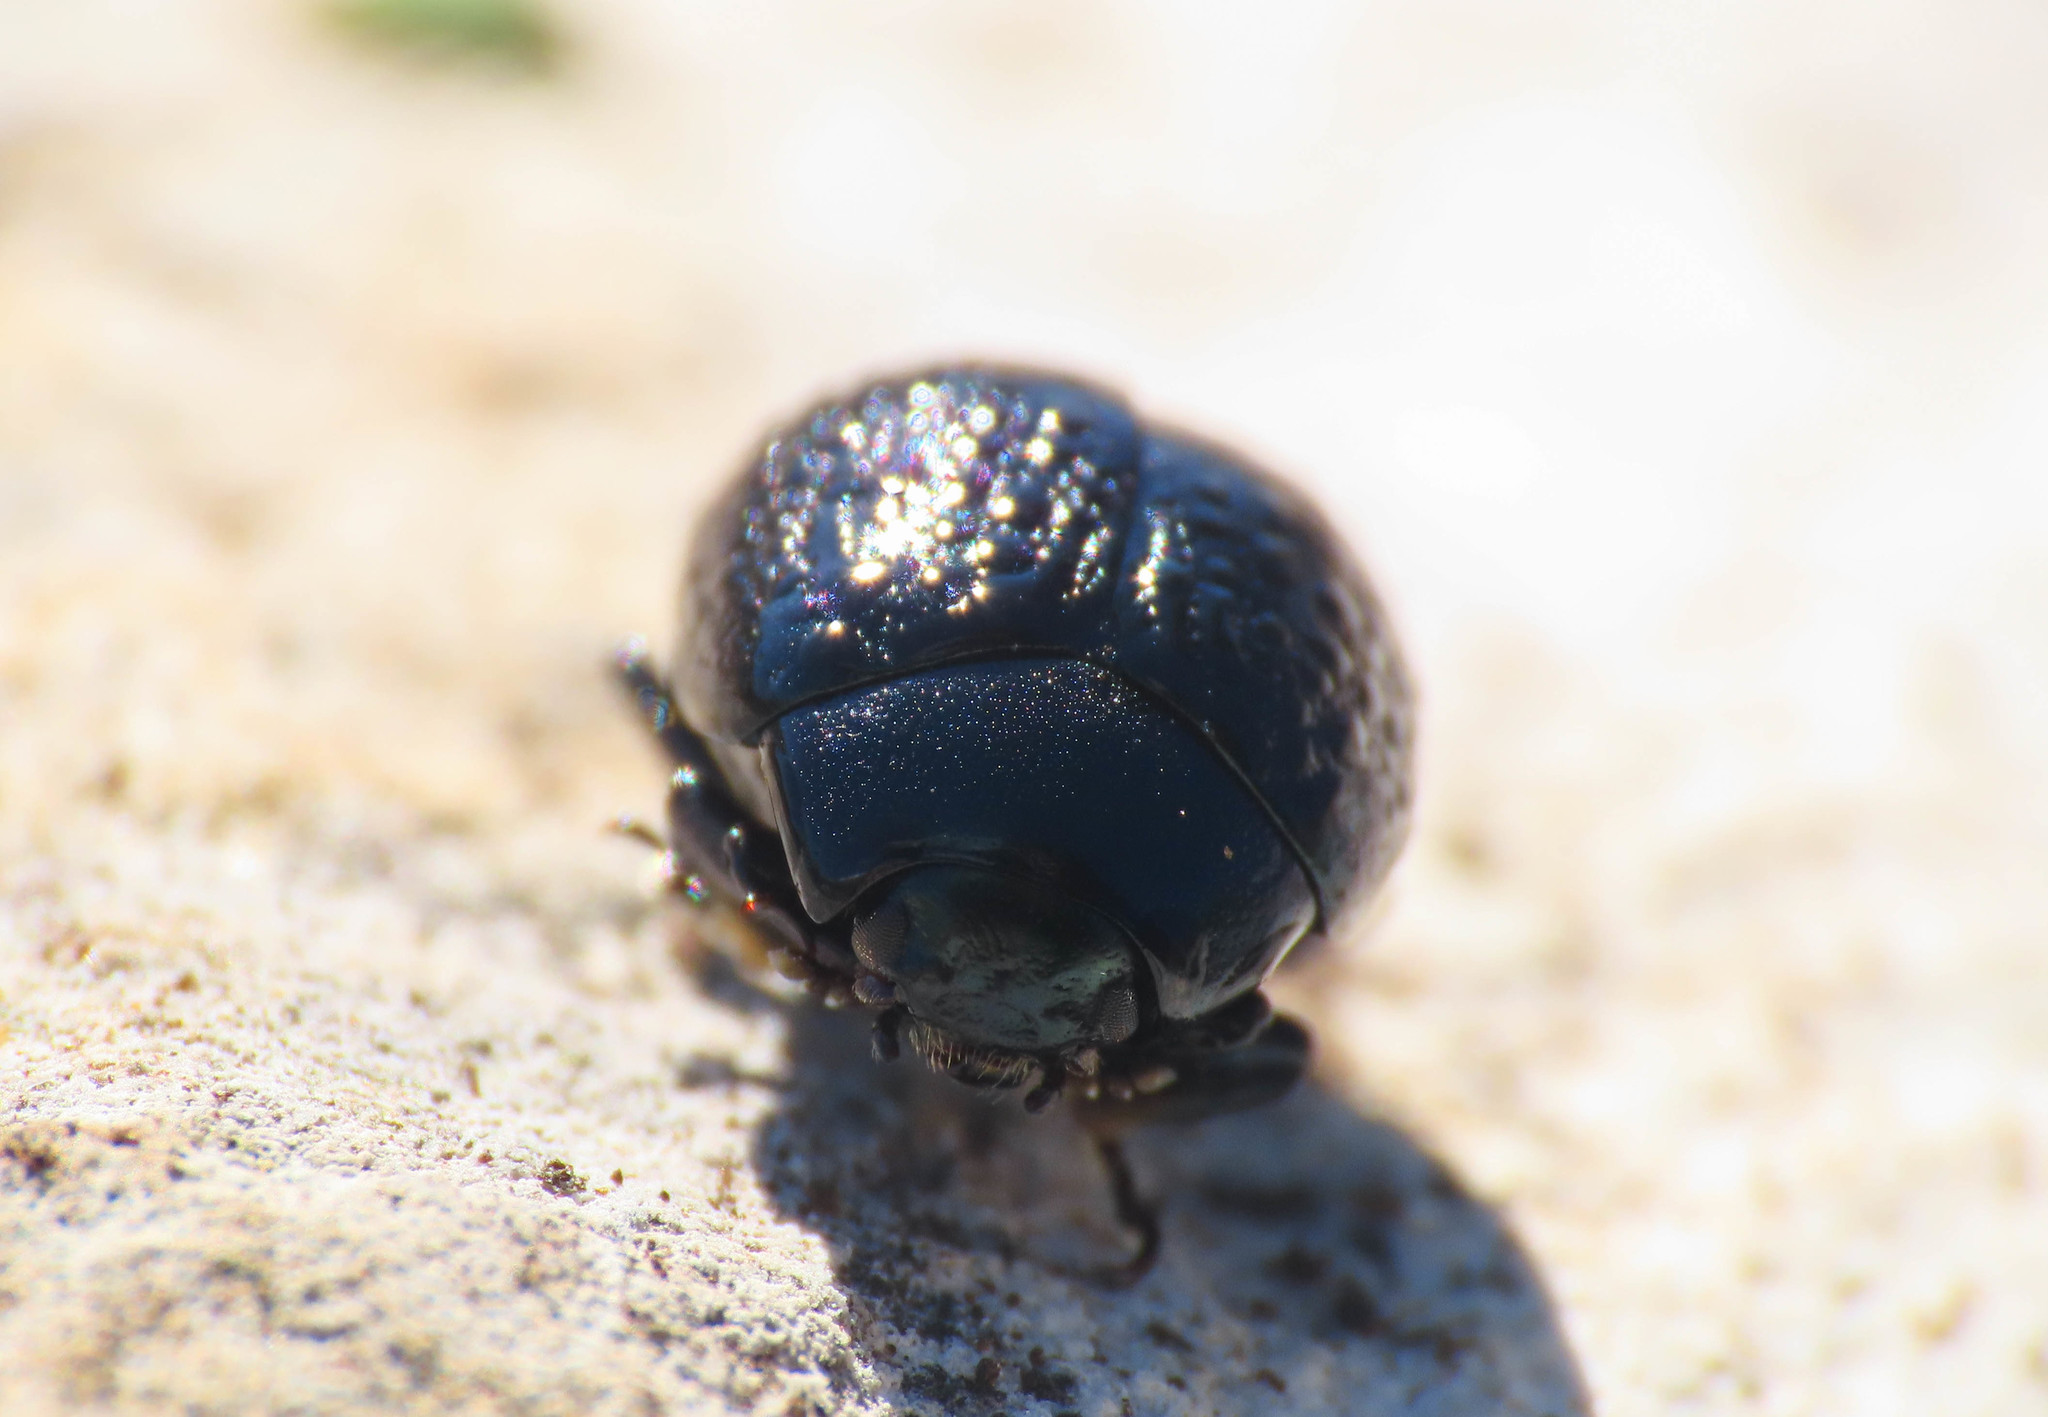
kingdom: Animalia
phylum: Arthropoda
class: Insecta
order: Coleoptera
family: Chrysomelidae
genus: Chrysolina
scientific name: Chrysolina haemoptera
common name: Plantain leaf beetle
